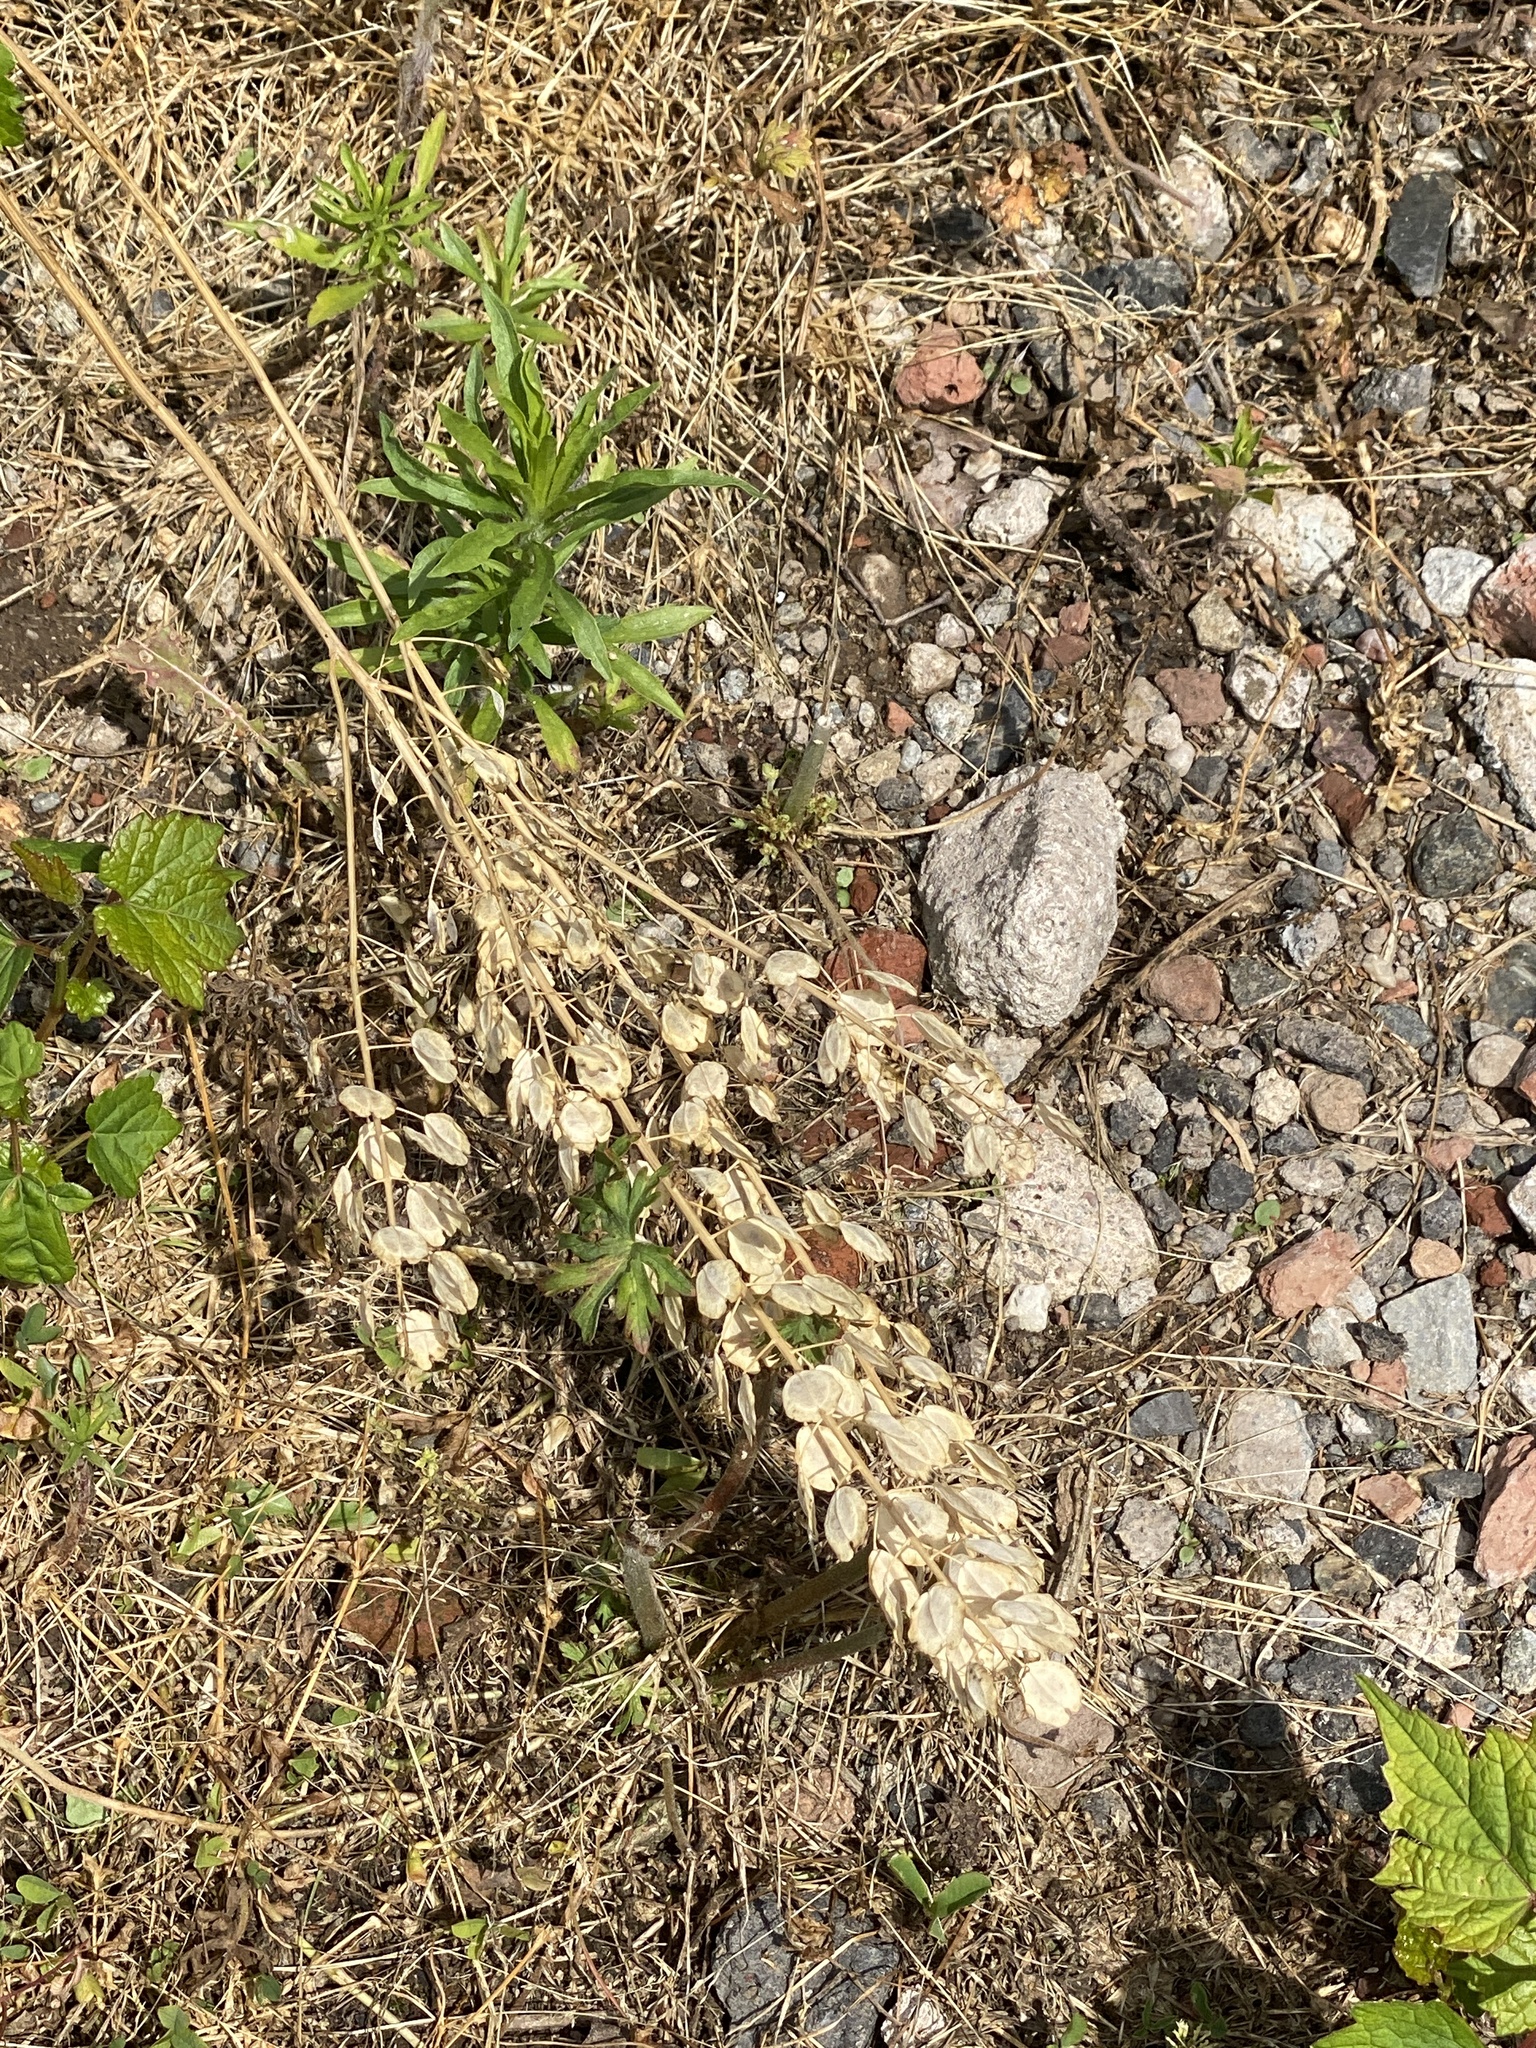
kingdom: Plantae
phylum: Tracheophyta
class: Magnoliopsida
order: Brassicales
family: Brassicaceae
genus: Thlaspi
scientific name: Thlaspi arvense
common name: Field pennycress
